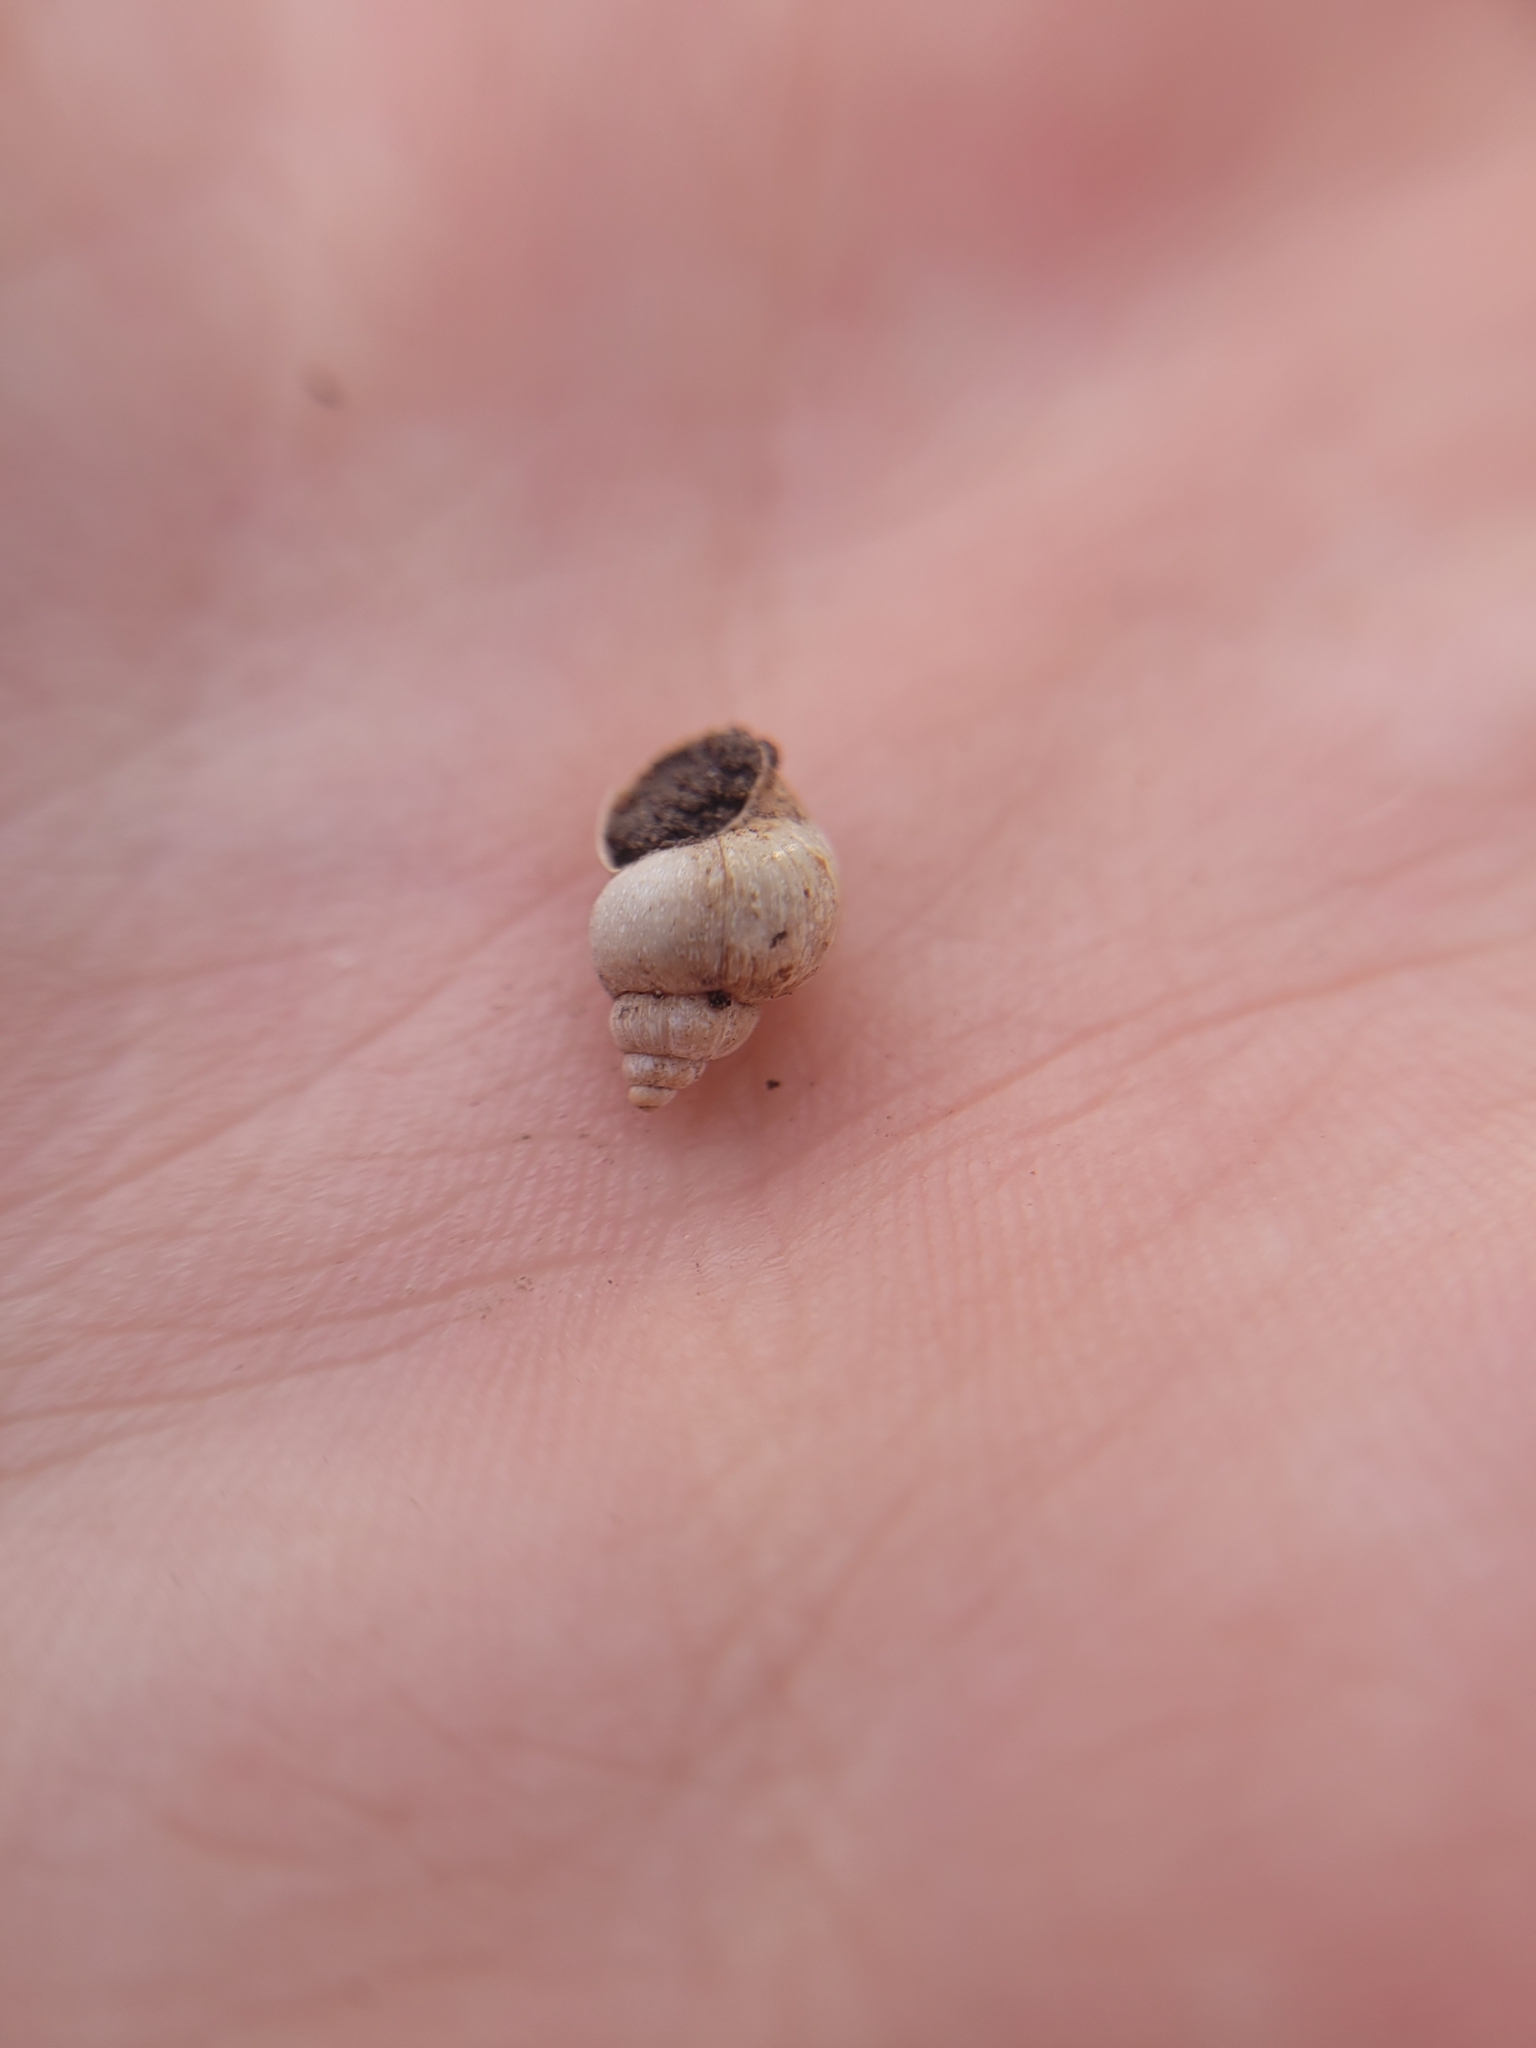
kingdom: Animalia
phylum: Mollusca
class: Gastropoda
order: Littorinimorpha
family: Bithyniidae
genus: Bithynia
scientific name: Bithynia tentaculata
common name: Common bithynia
